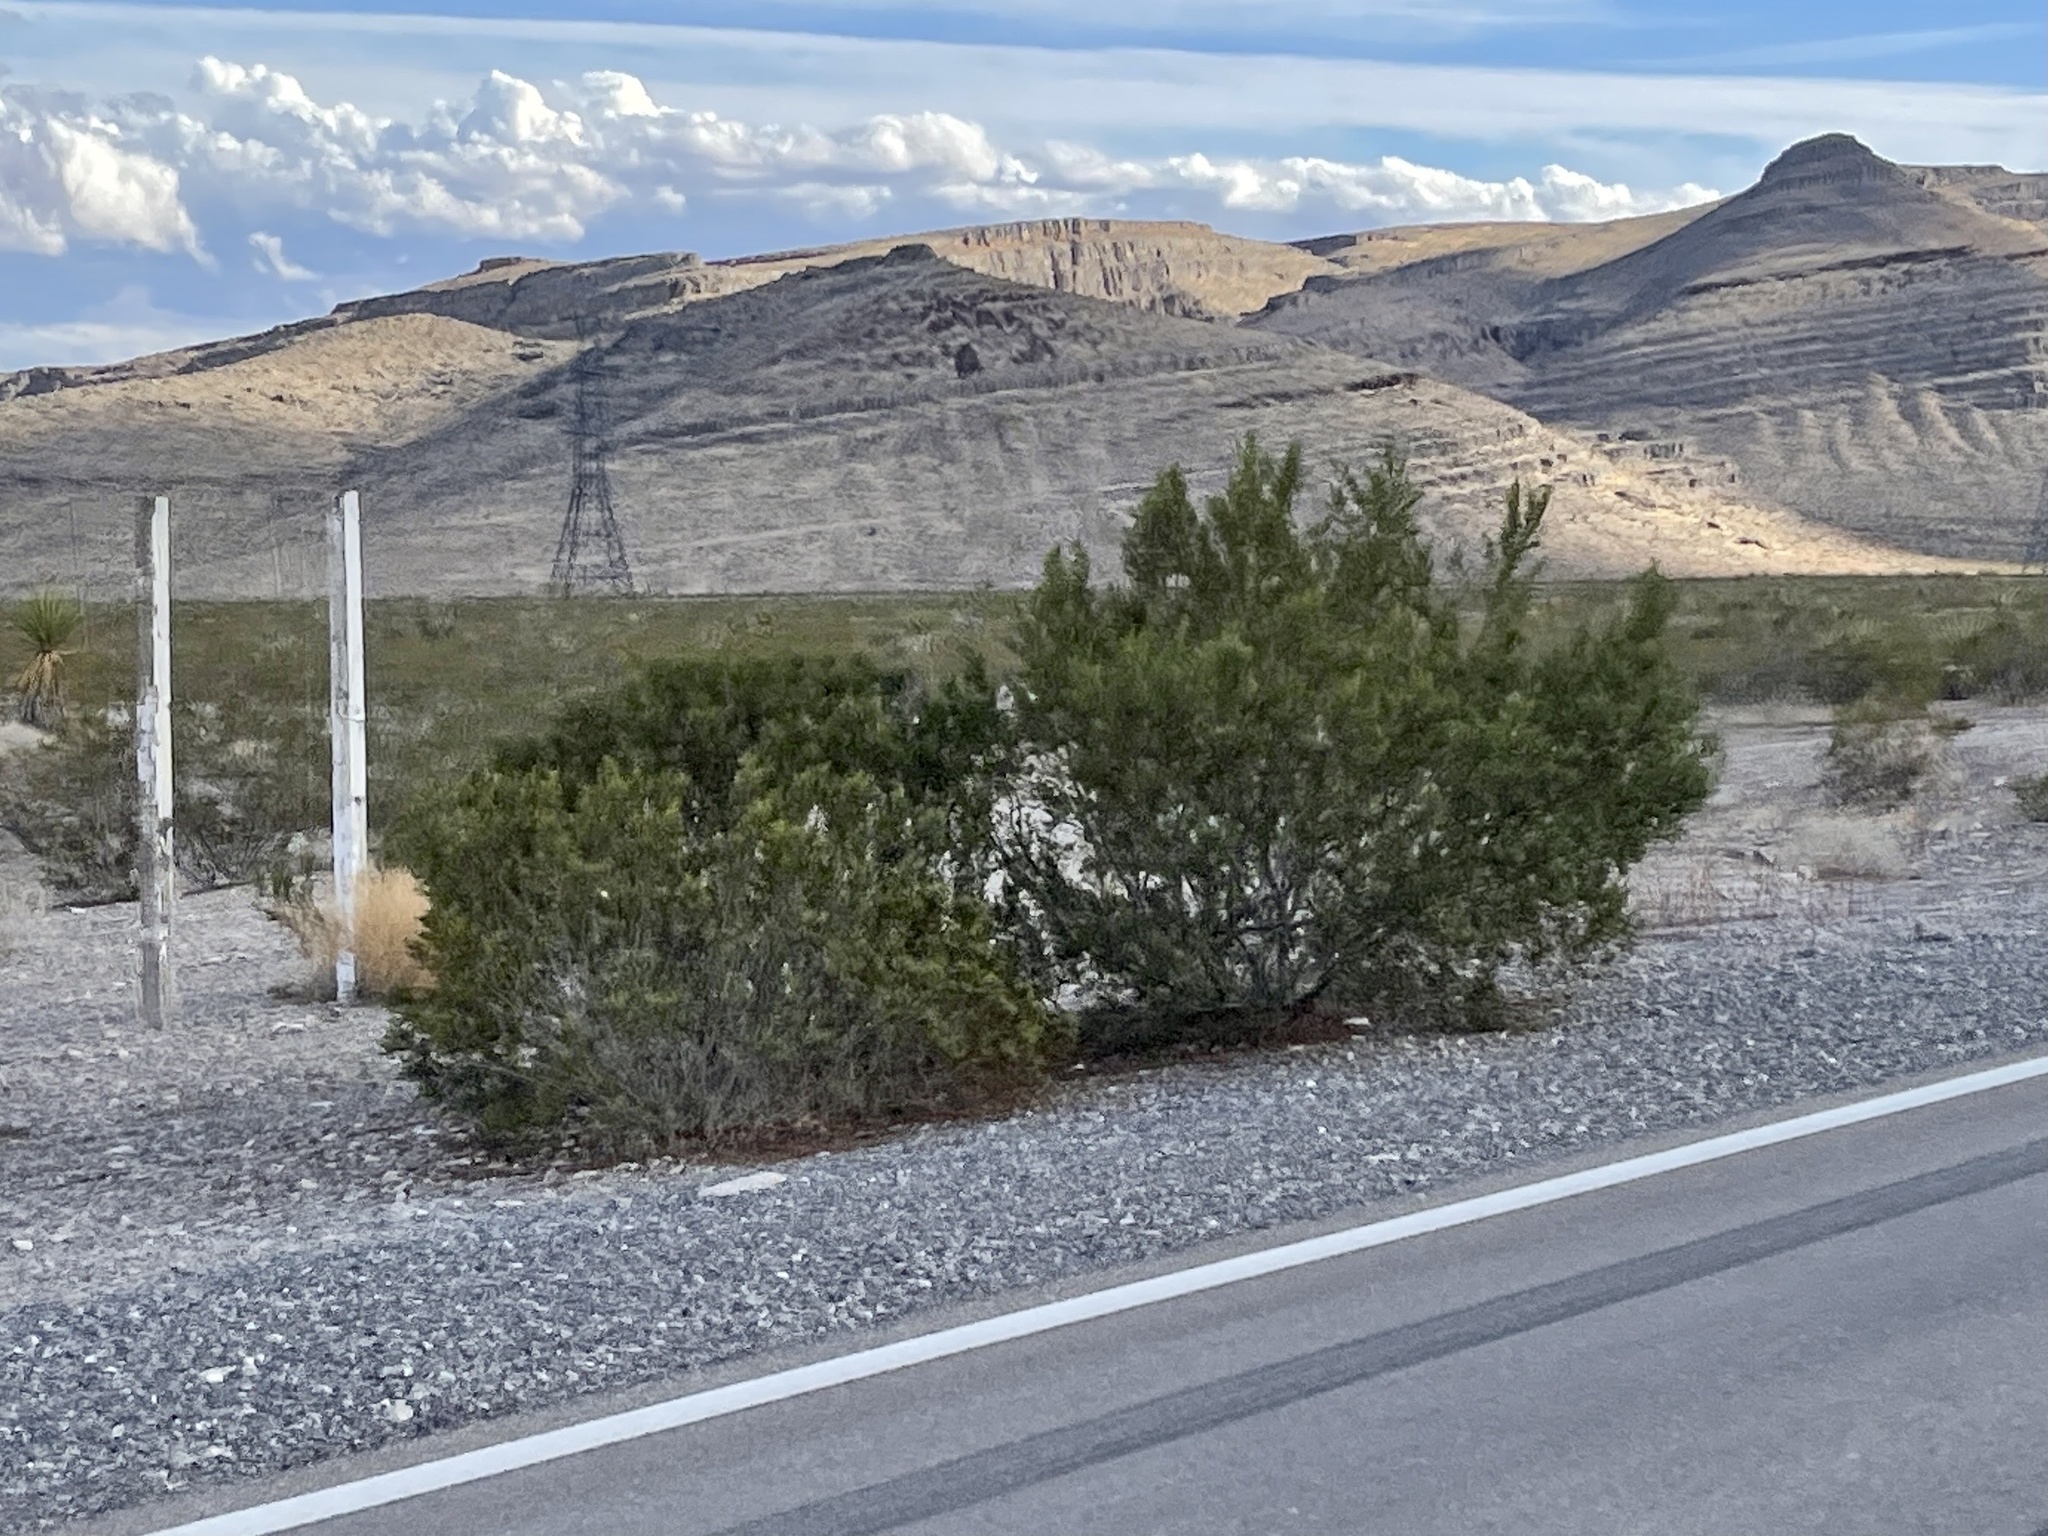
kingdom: Plantae
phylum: Tracheophyta
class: Magnoliopsida
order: Zygophyllales
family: Zygophyllaceae
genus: Larrea
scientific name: Larrea tridentata
